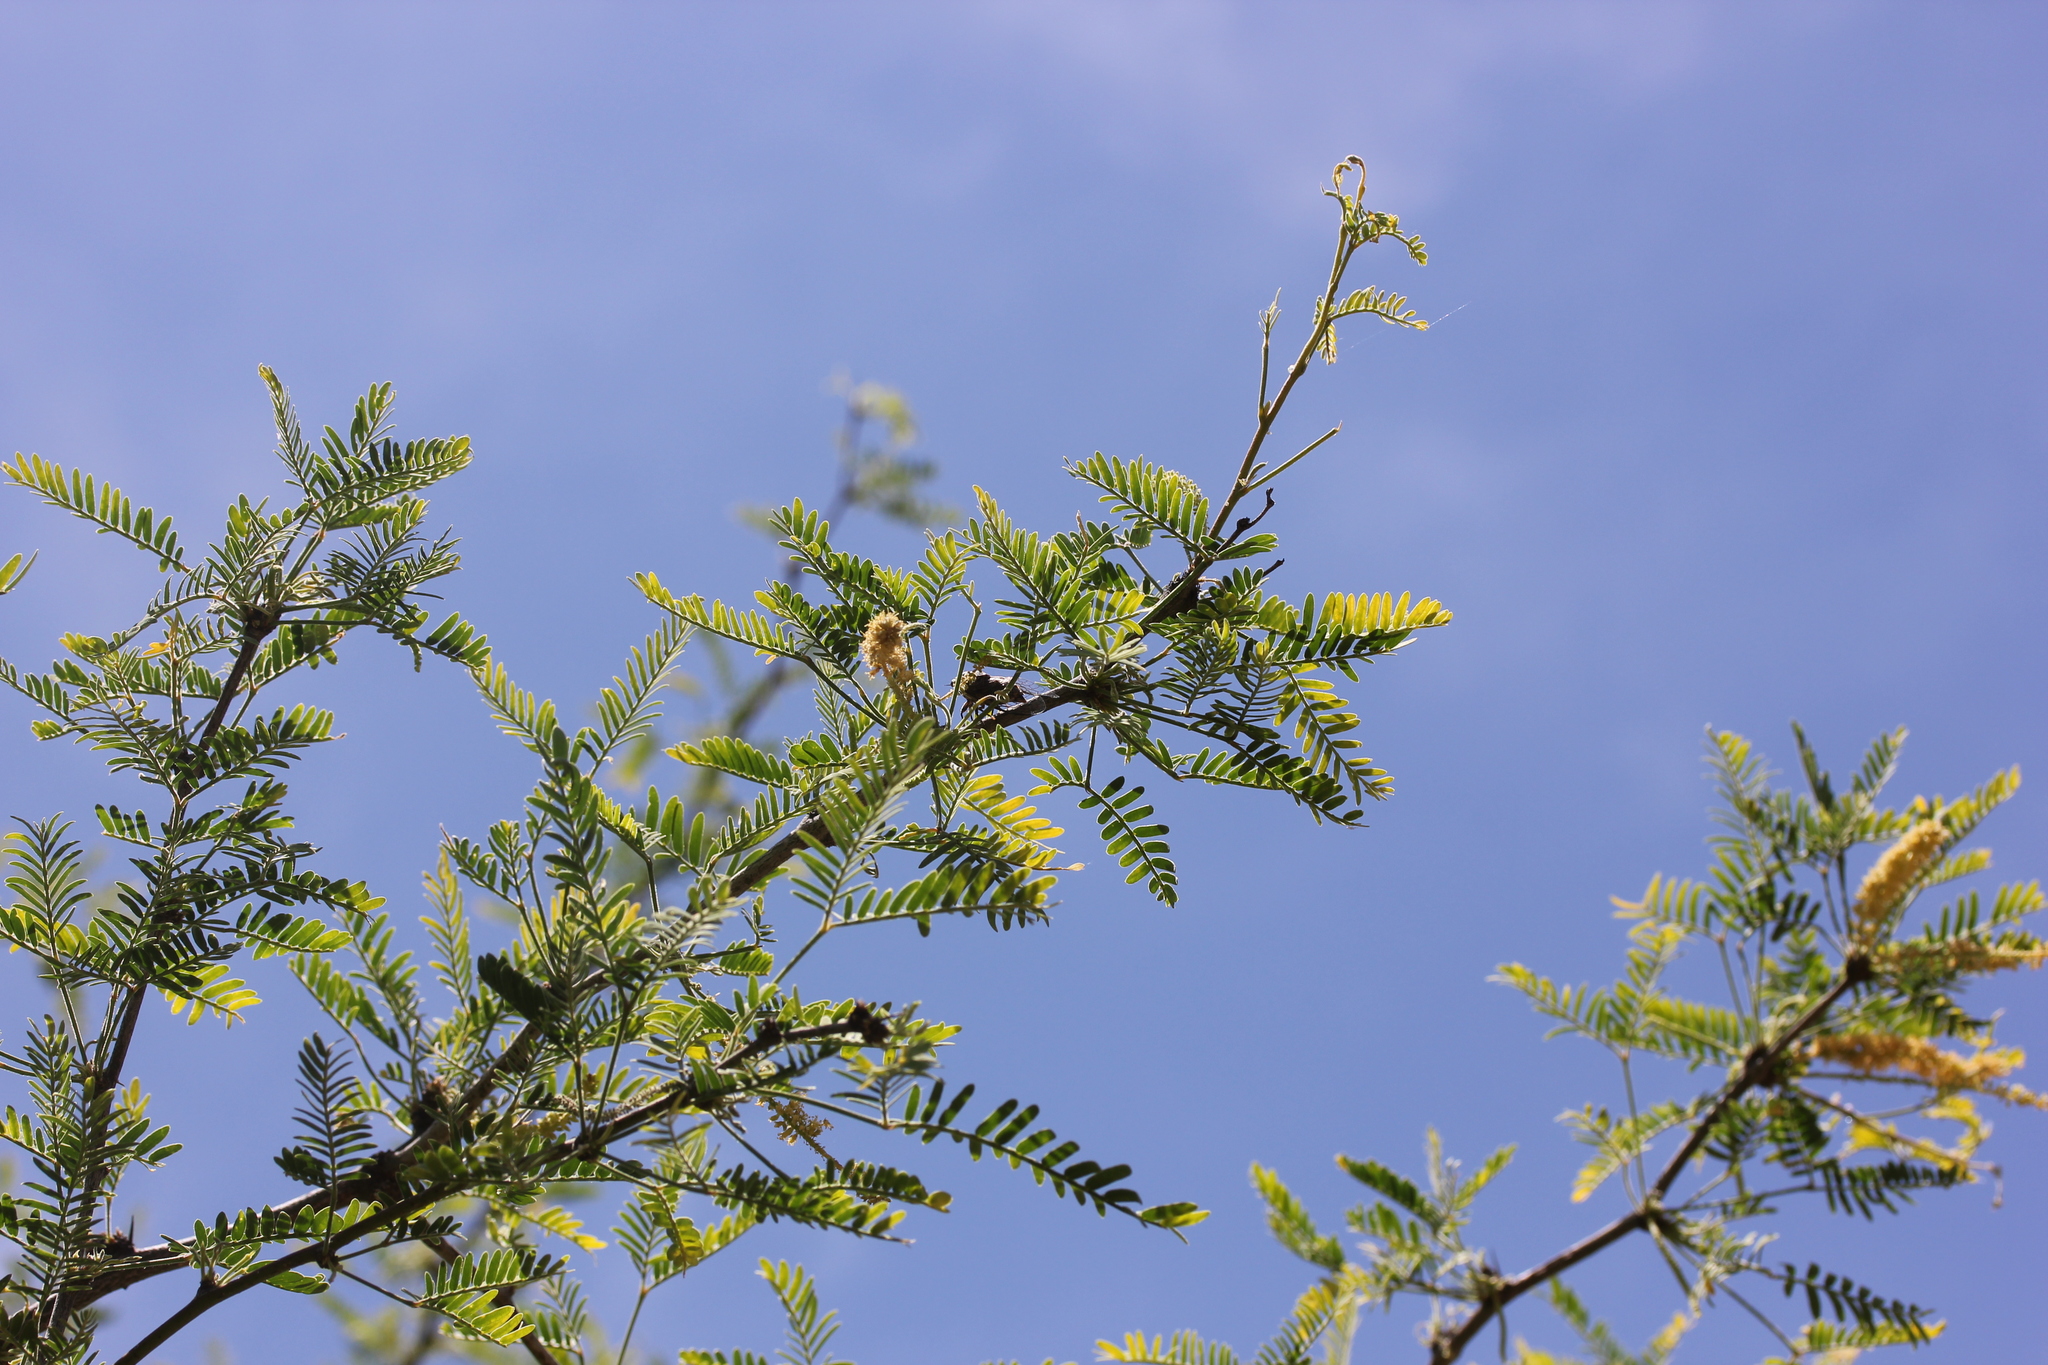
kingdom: Plantae
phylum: Tracheophyta
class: Magnoliopsida
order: Fabales
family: Fabaceae
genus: Prosopis
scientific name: Prosopis velutina
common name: Velvet mesquite
